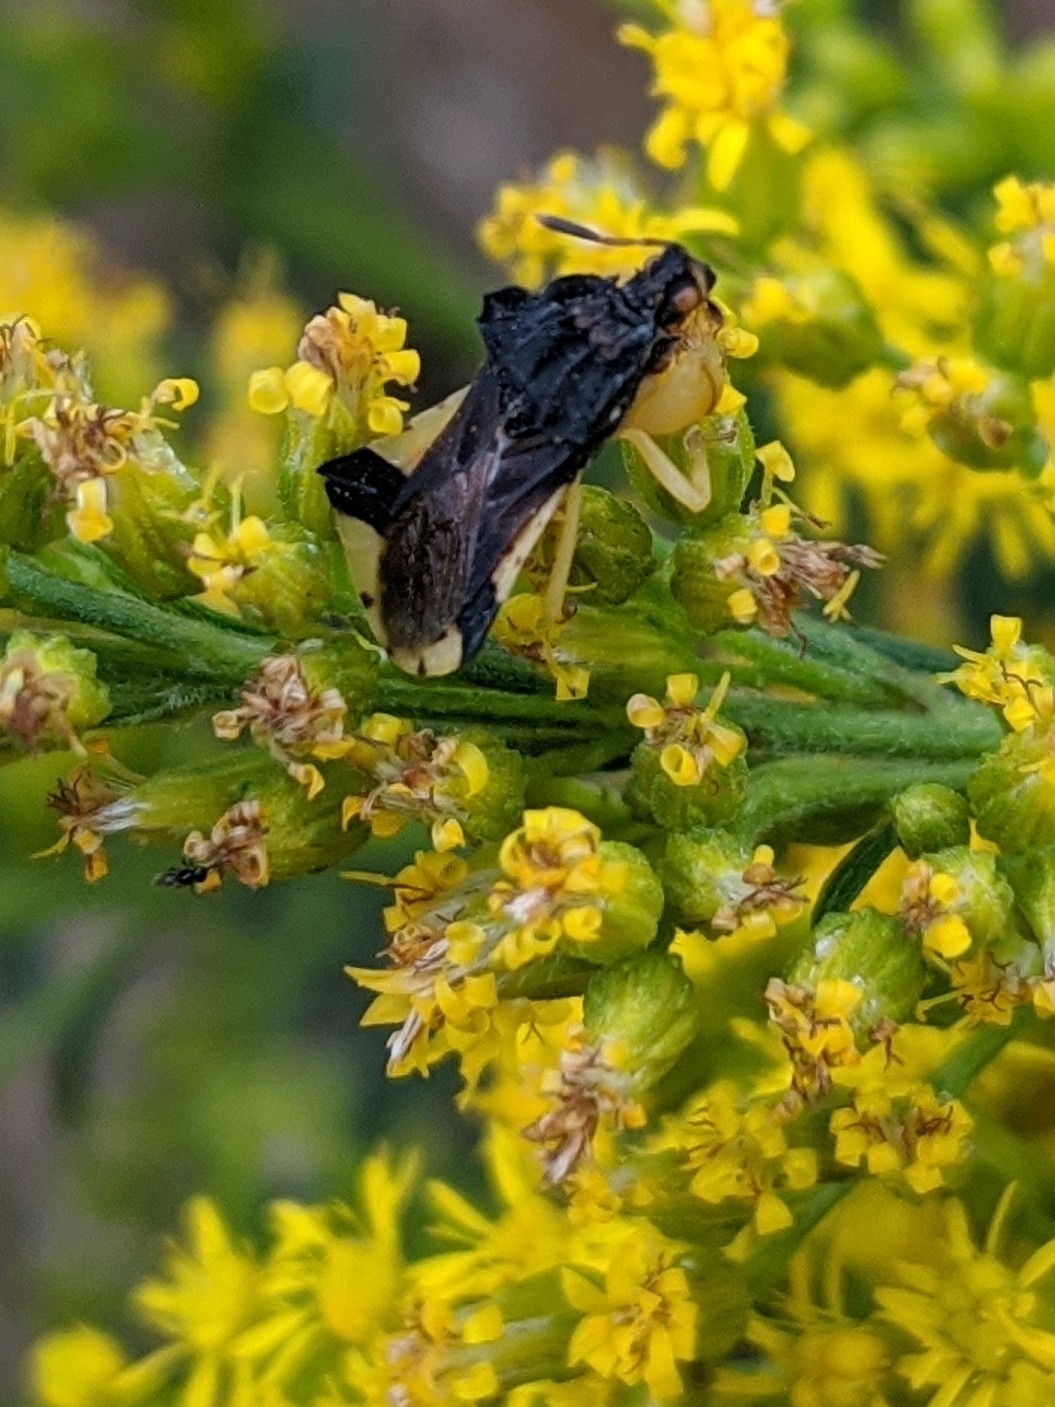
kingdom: Animalia
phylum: Arthropoda
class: Insecta
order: Hemiptera
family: Reduviidae
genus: Phymata
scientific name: Phymata pennsylvanica
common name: Pennsylvania ambush bug
